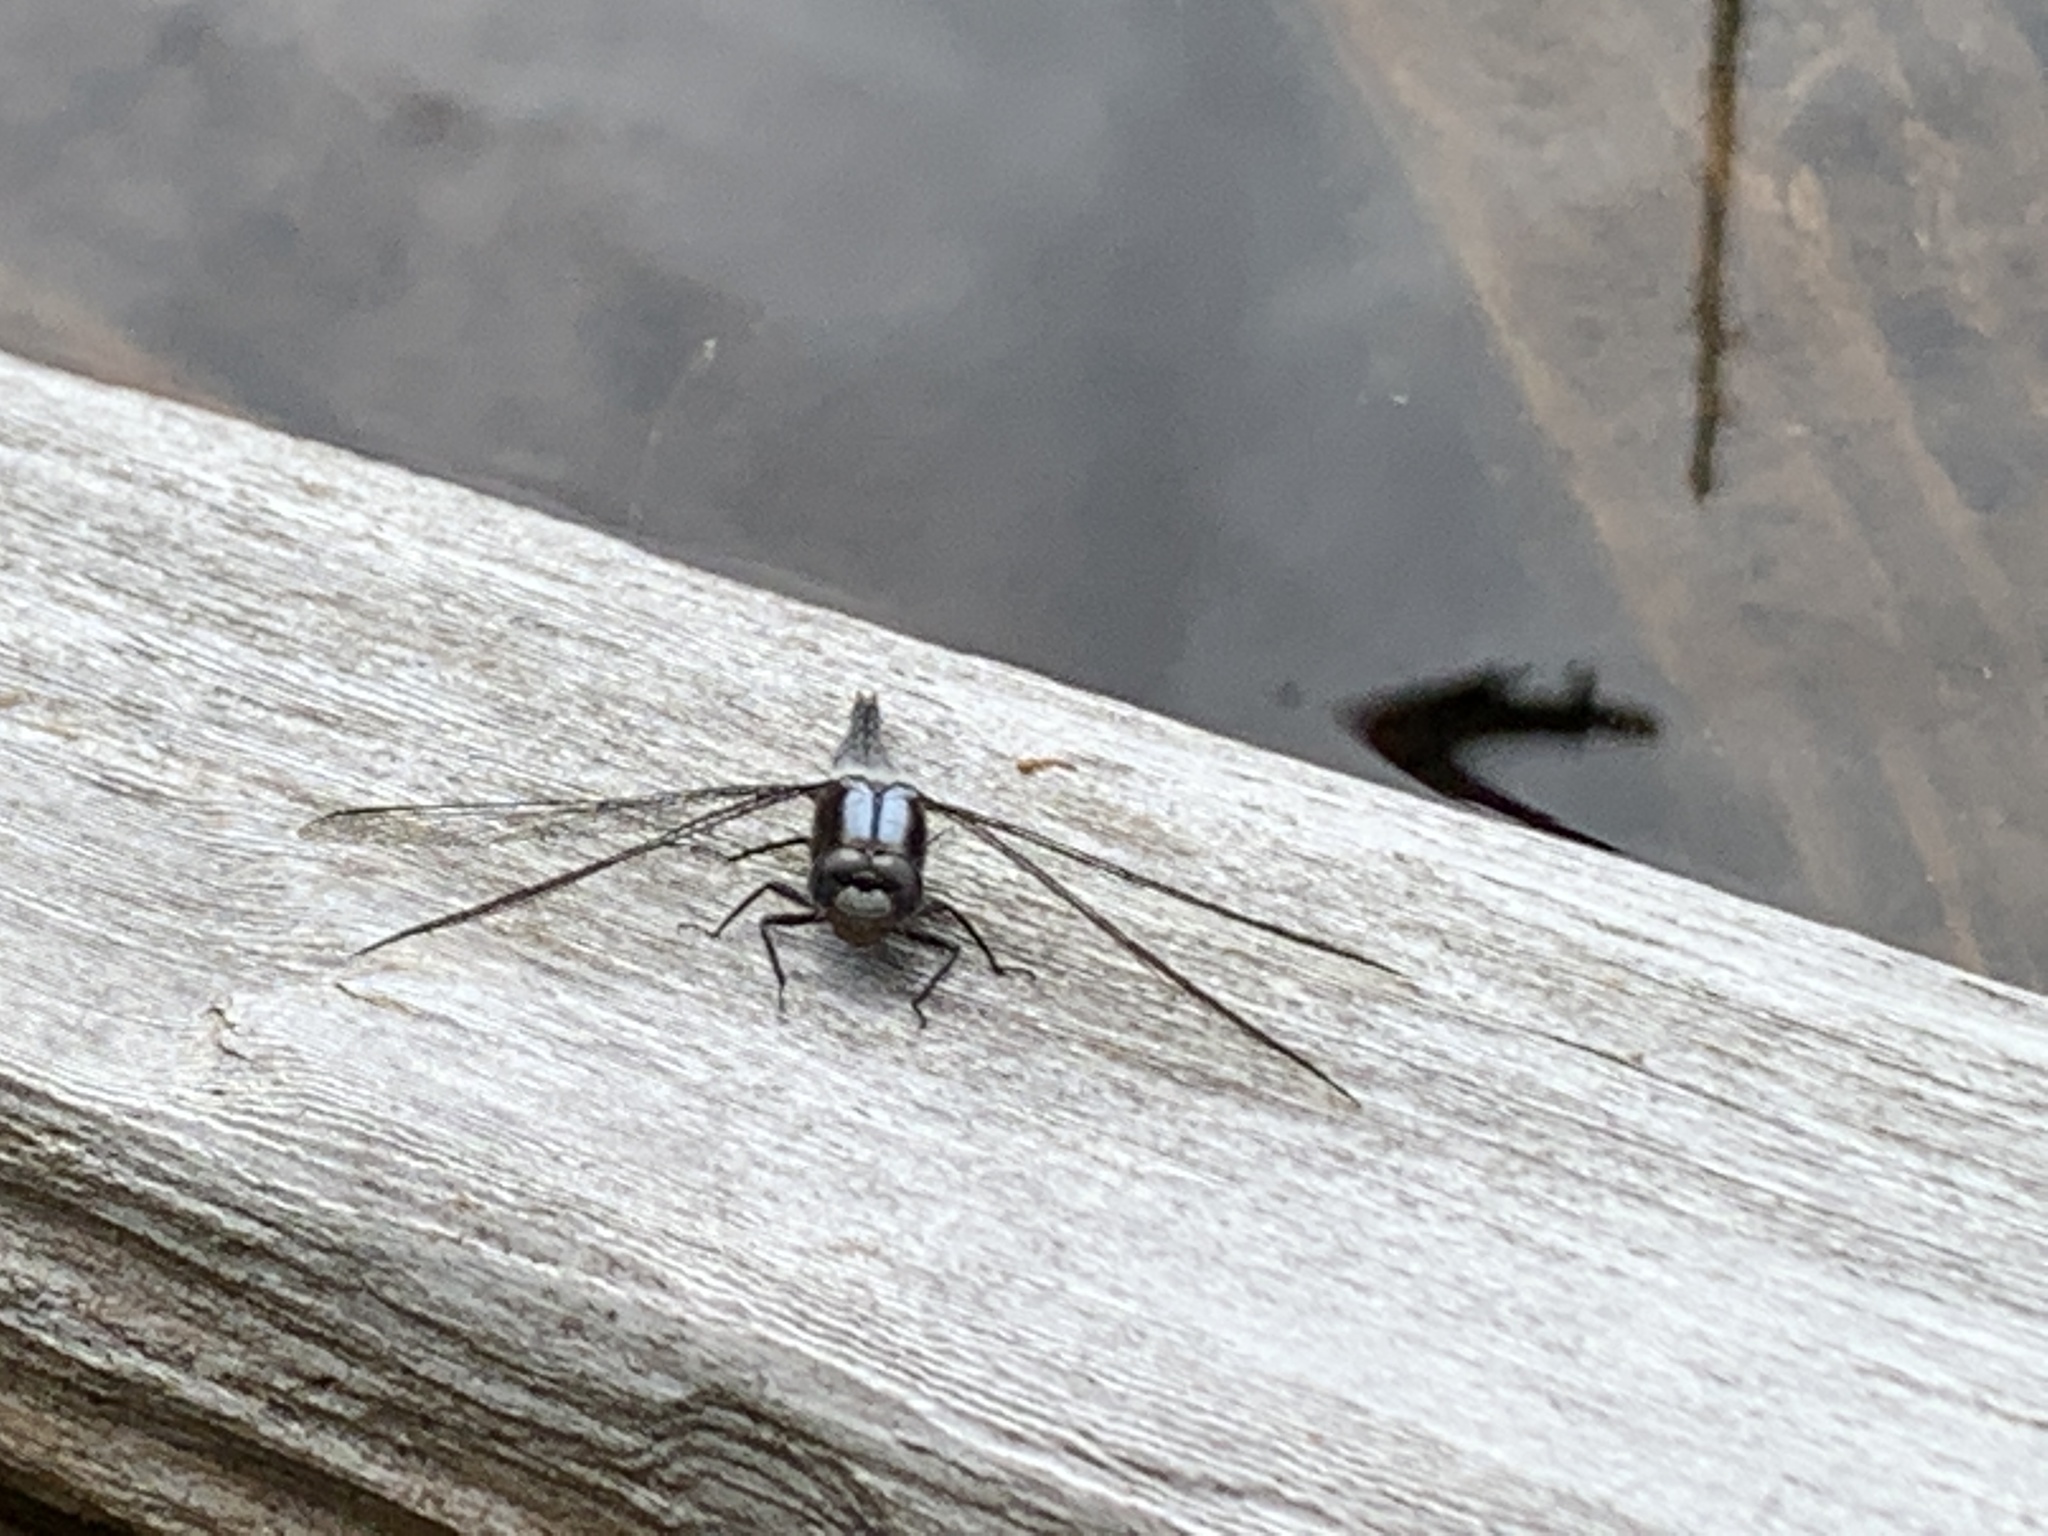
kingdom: Animalia
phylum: Arthropoda
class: Insecta
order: Odonata
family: Libellulidae
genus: Ladona
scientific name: Ladona julia
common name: Chalk-fronted corporal
